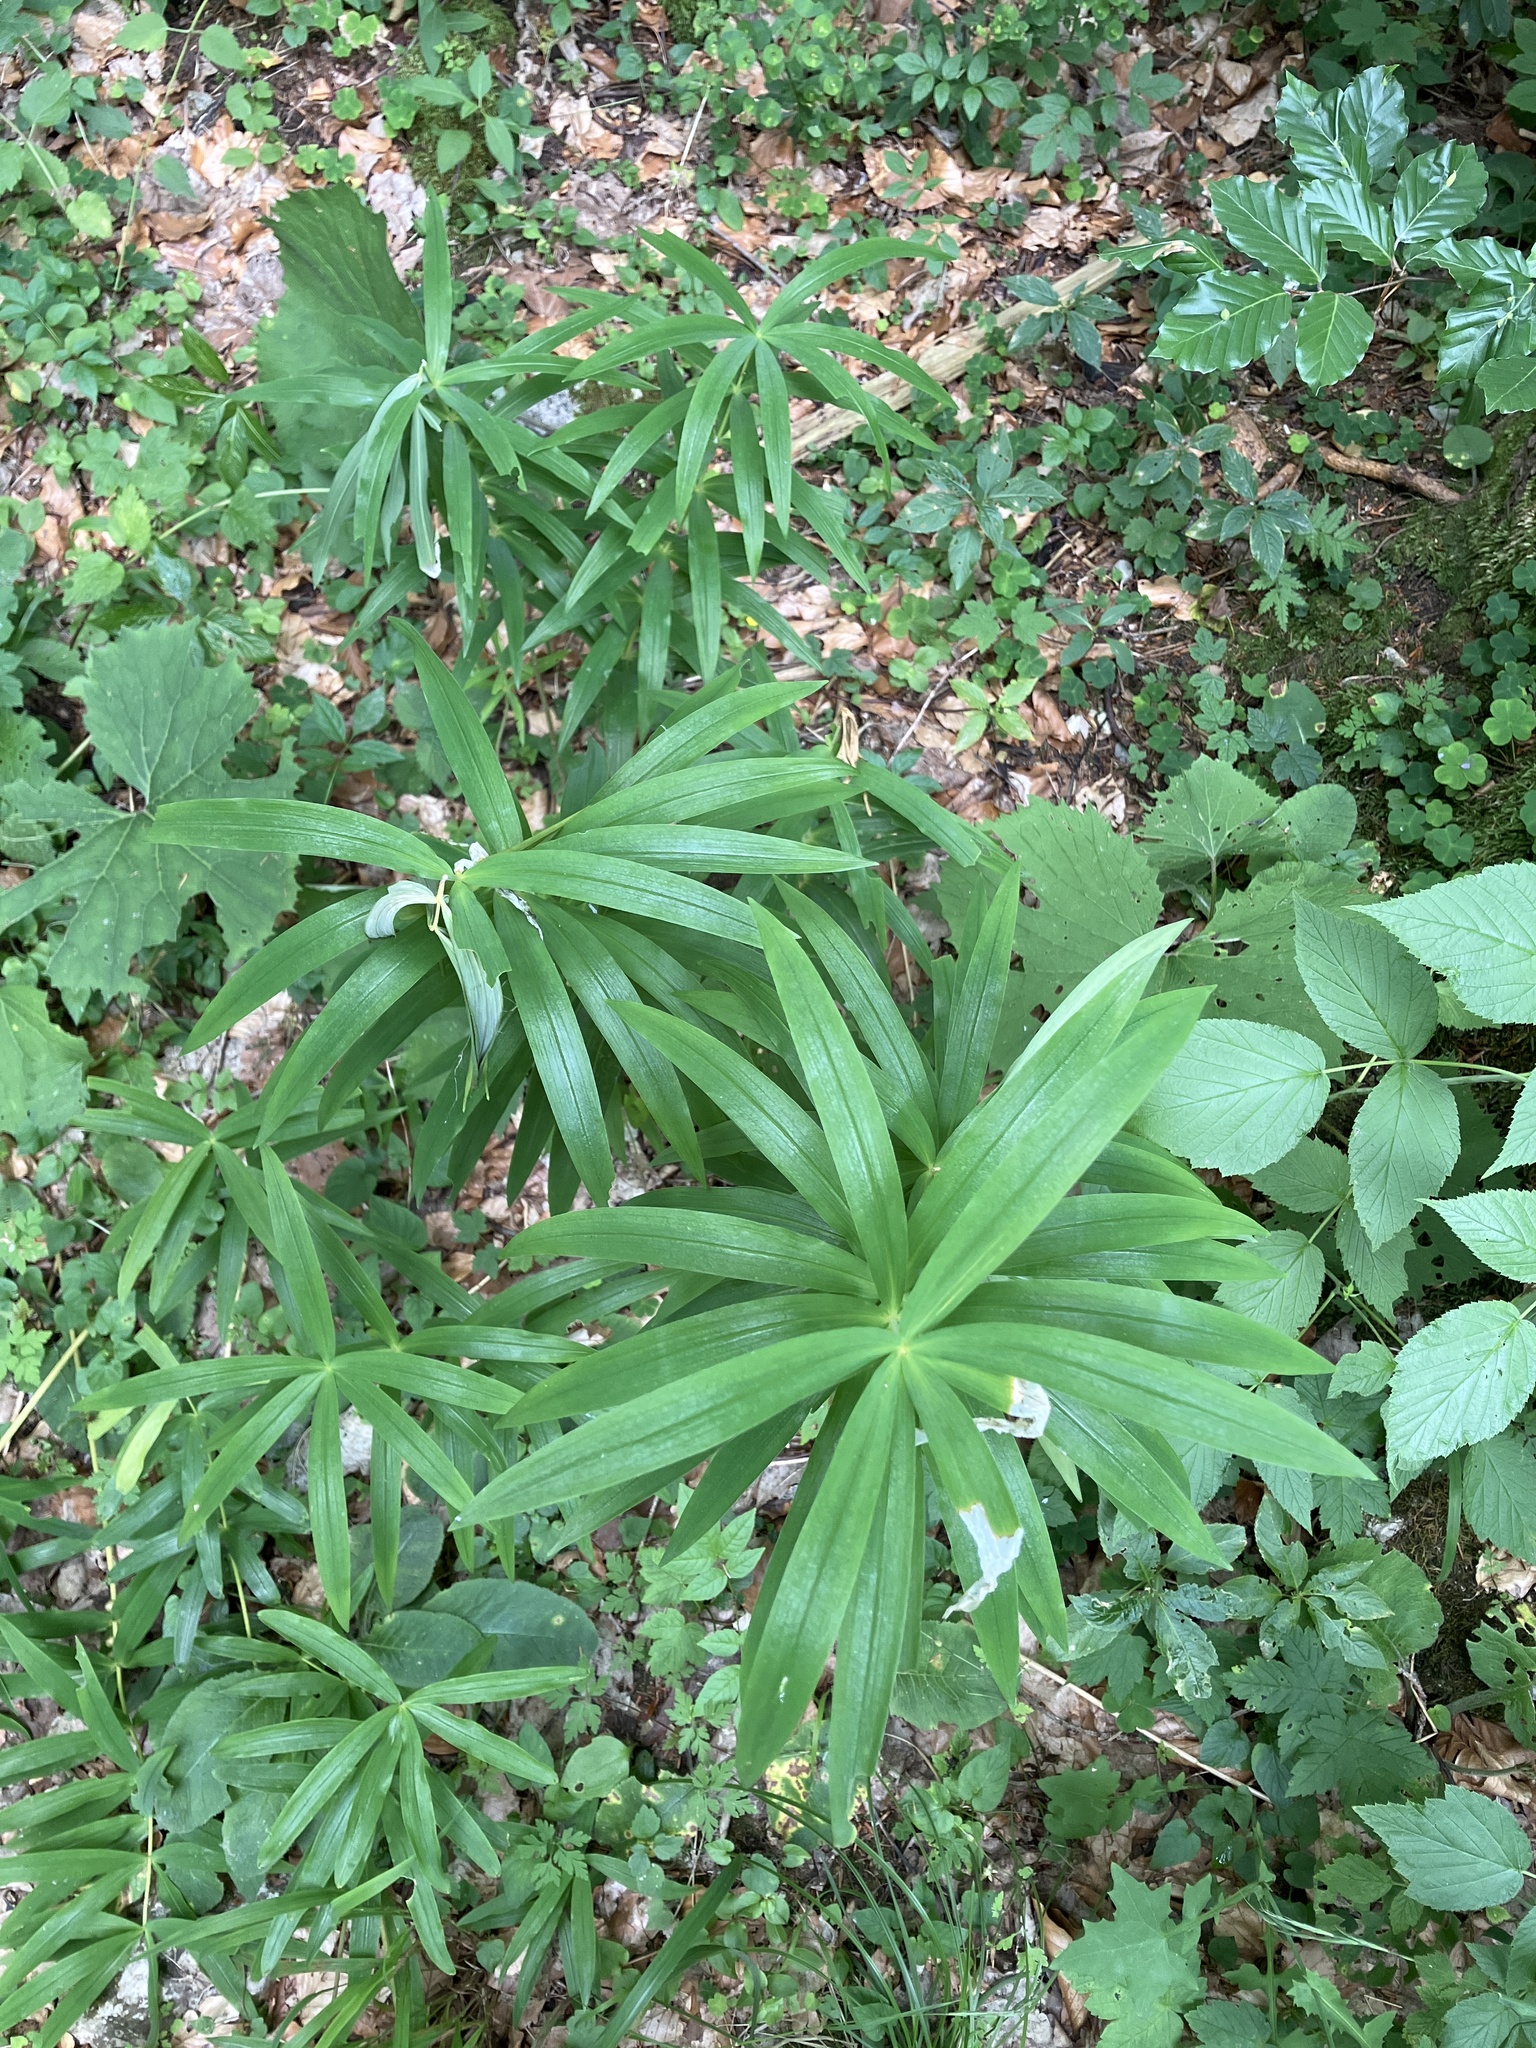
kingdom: Plantae
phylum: Tracheophyta
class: Liliopsida
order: Asparagales
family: Asparagaceae
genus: Polygonatum
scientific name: Polygonatum verticillatum
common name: Whorled solomon's-seal
